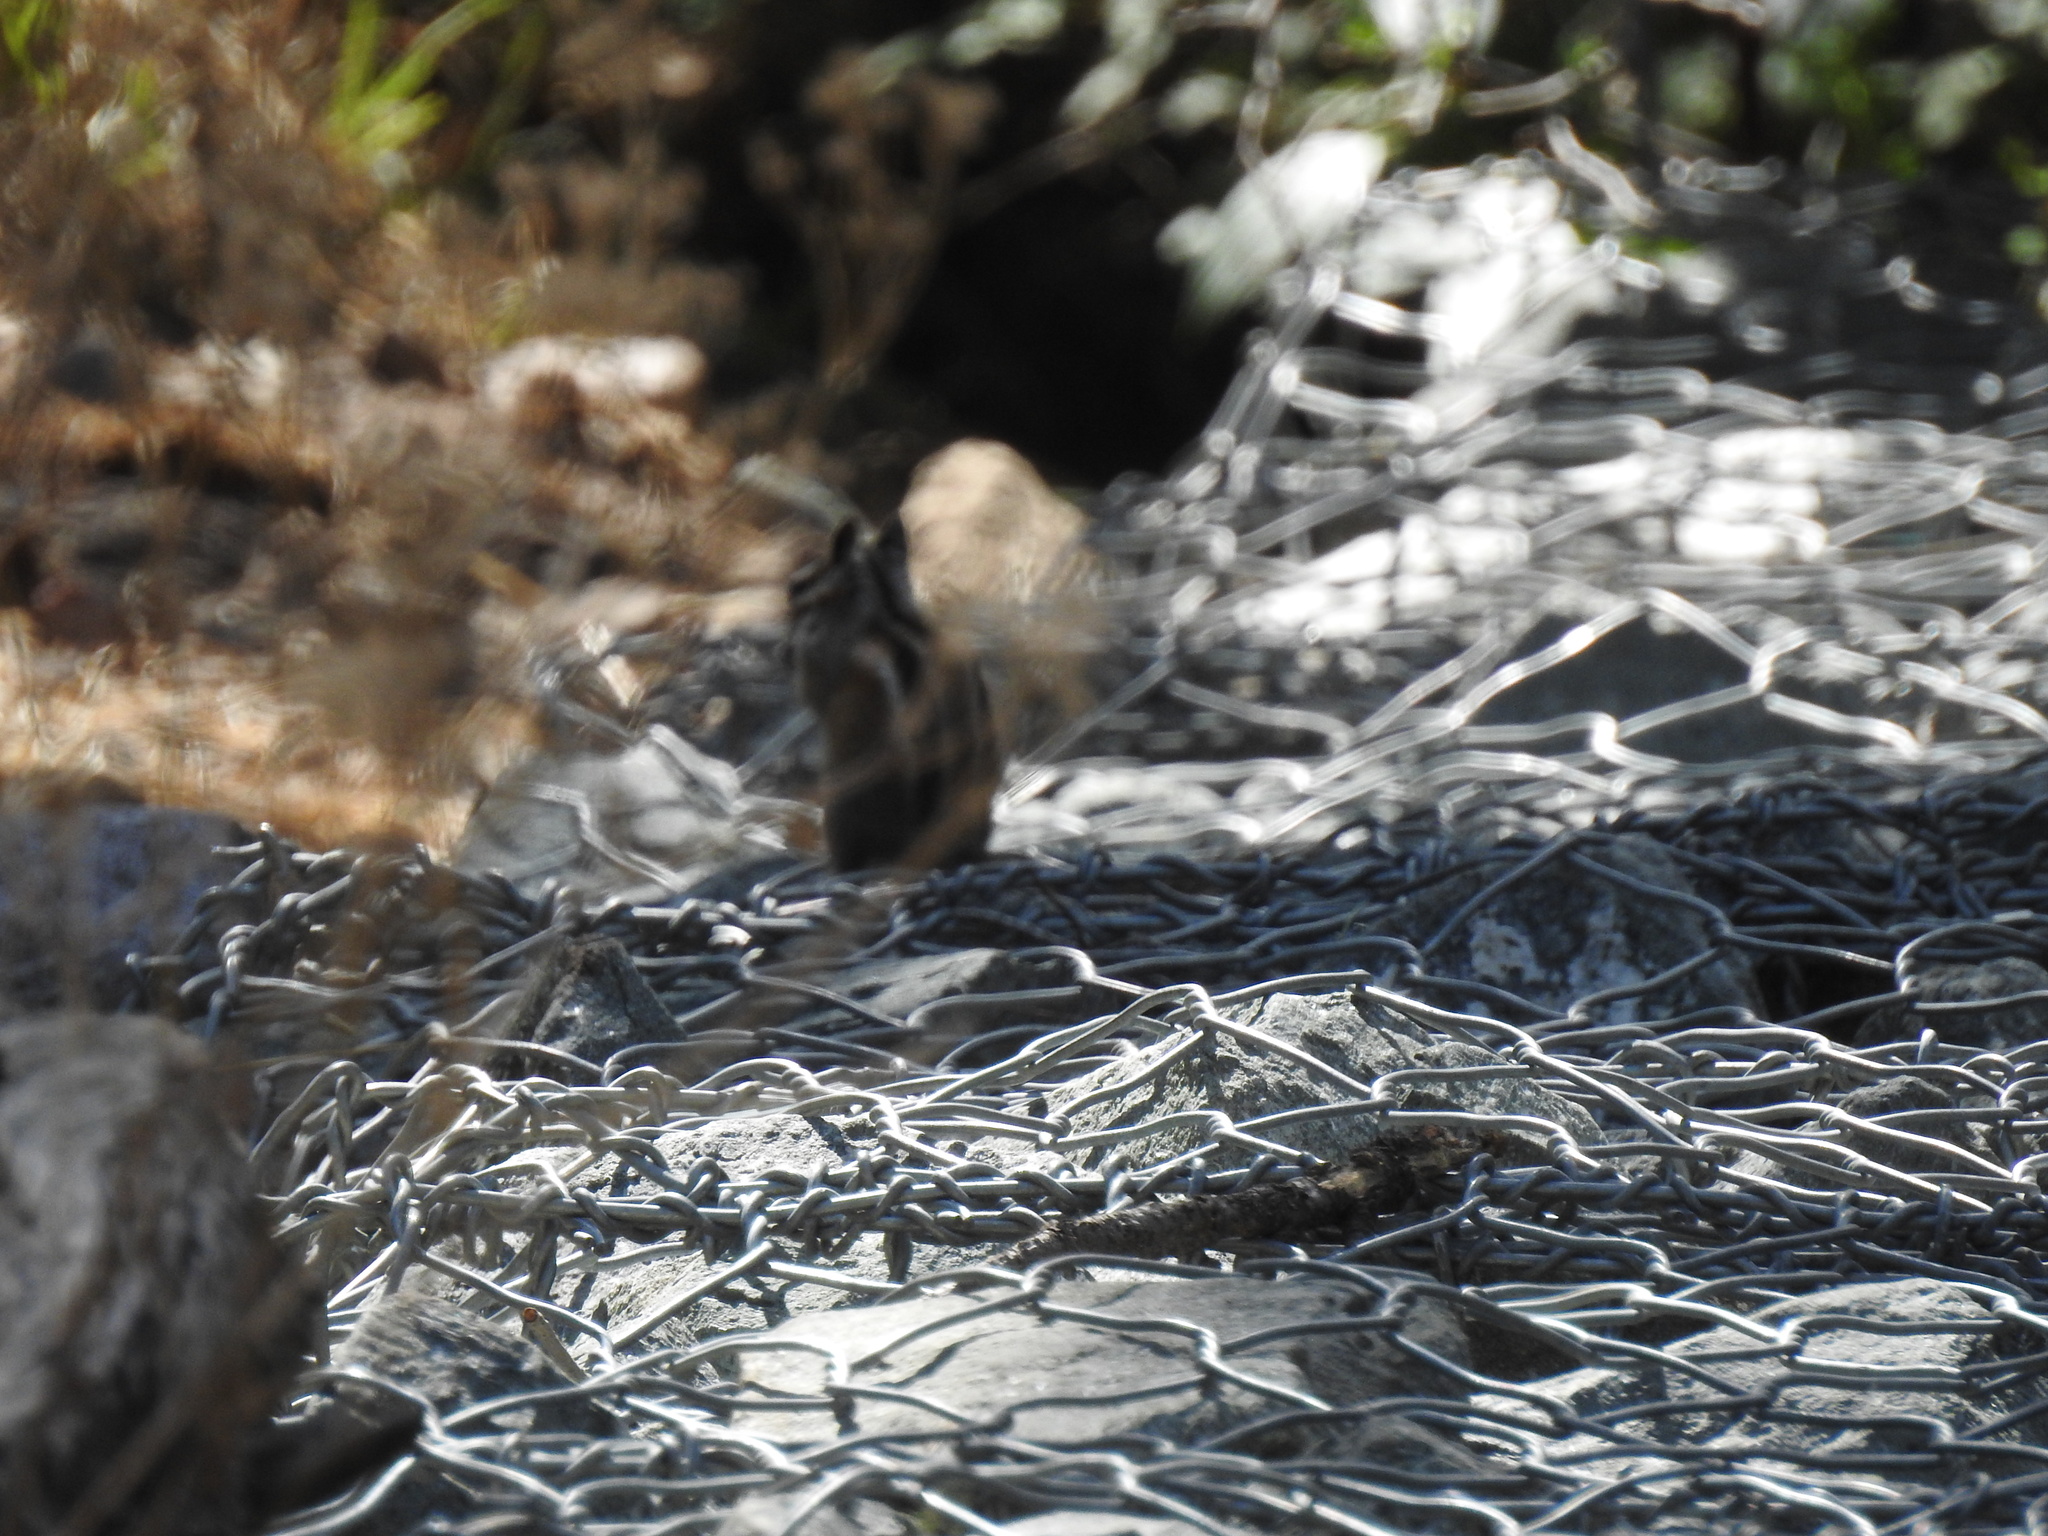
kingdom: Animalia
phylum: Chordata
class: Mammalia
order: Rodentia
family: Sciuridae
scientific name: Sciuridae
